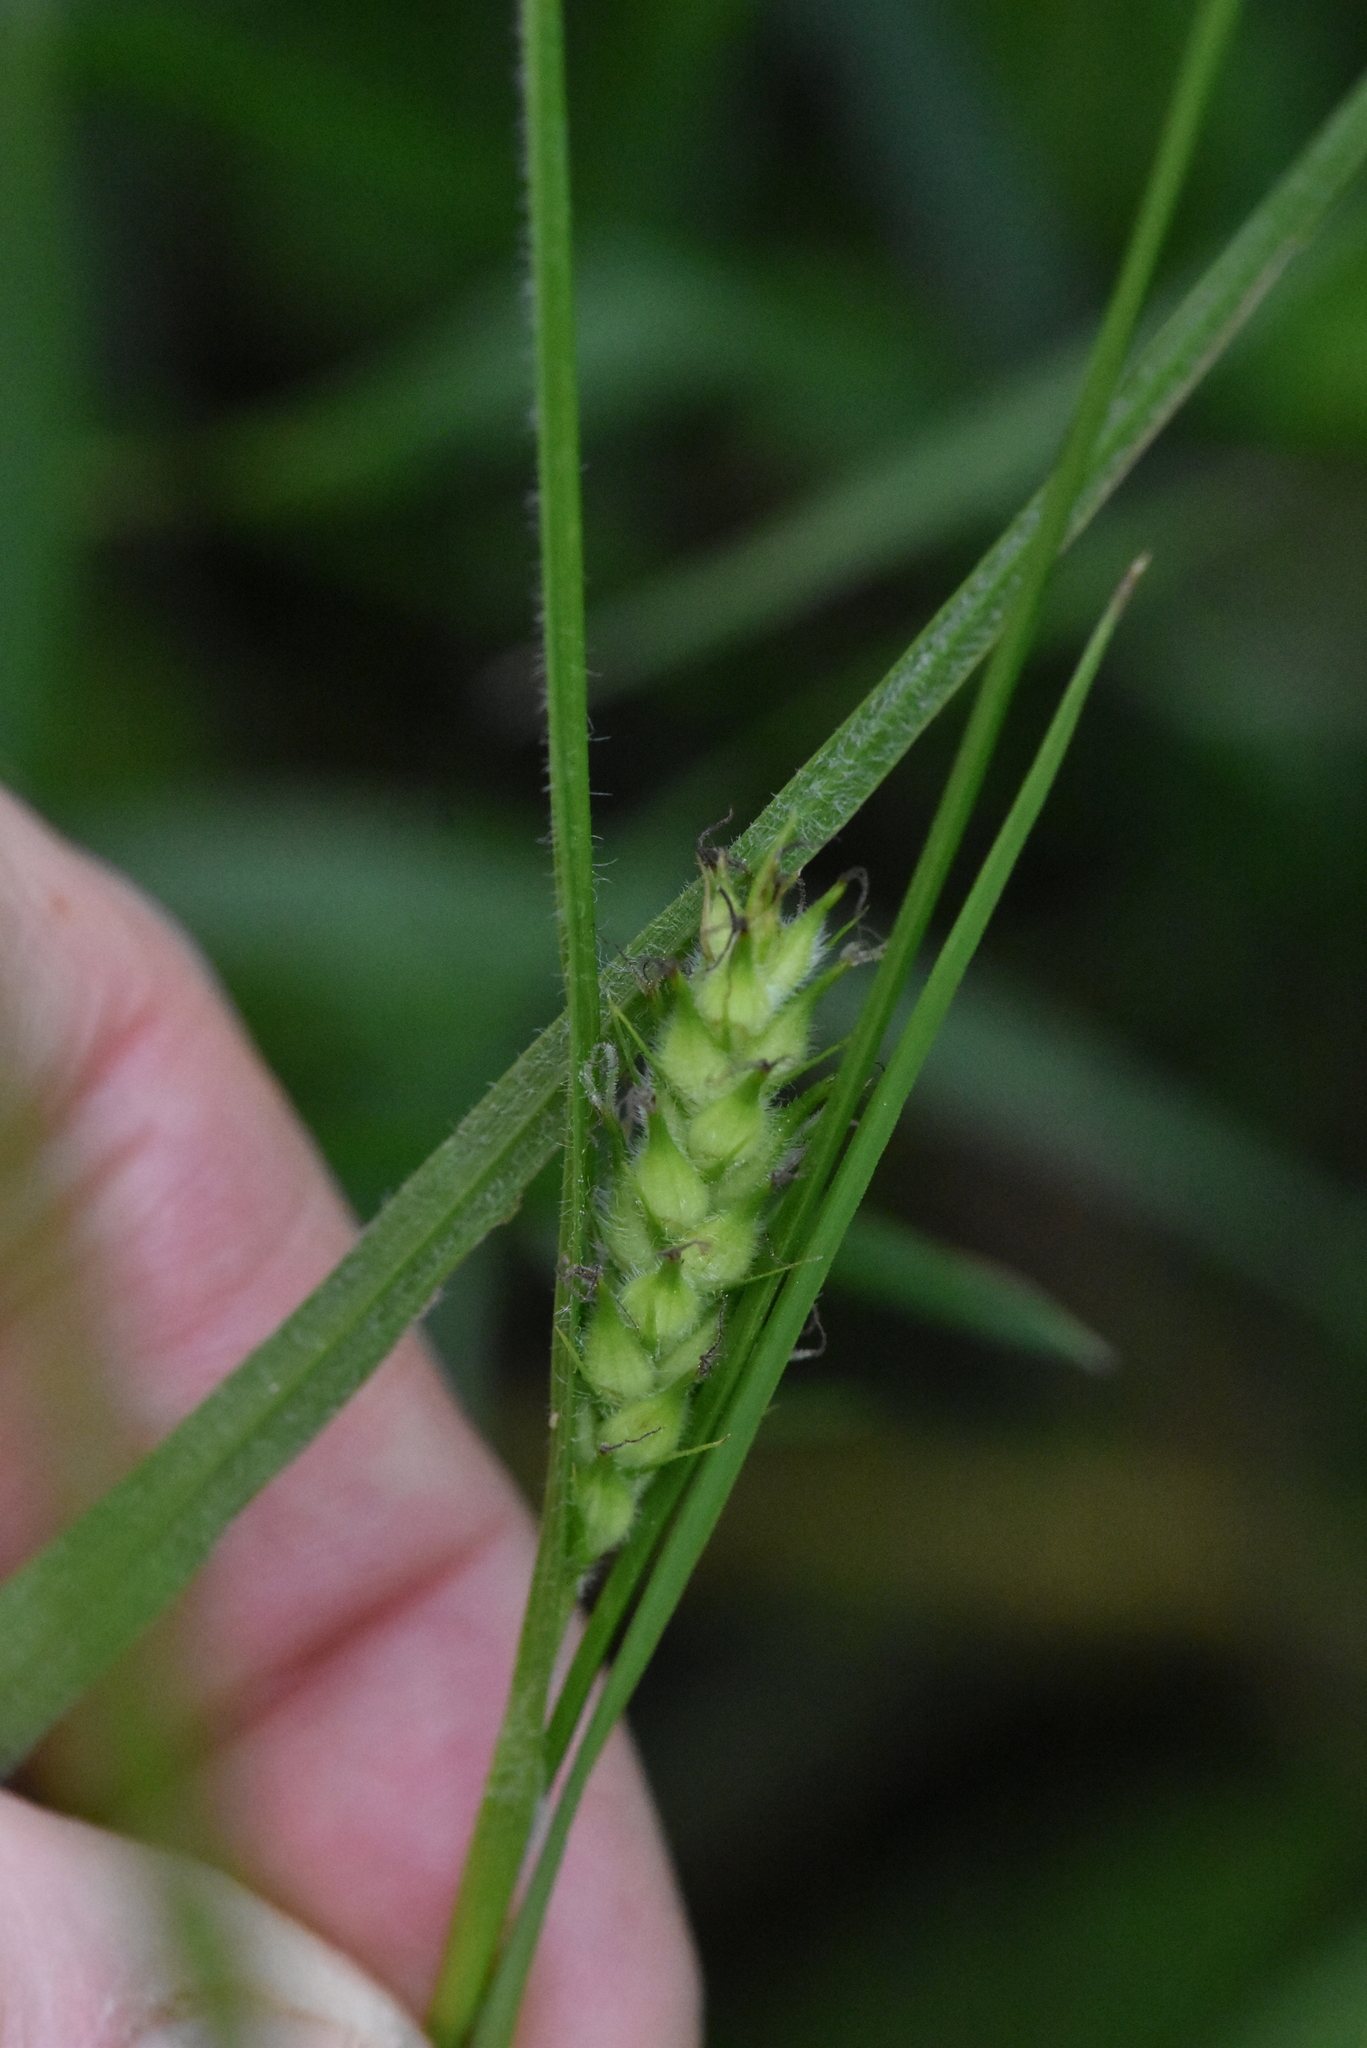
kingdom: Plantae
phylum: Tracheophyta
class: Liliopsida
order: Poales
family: Cyperaceae
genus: Carex
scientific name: Carex hirta
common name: Hairy sedge
